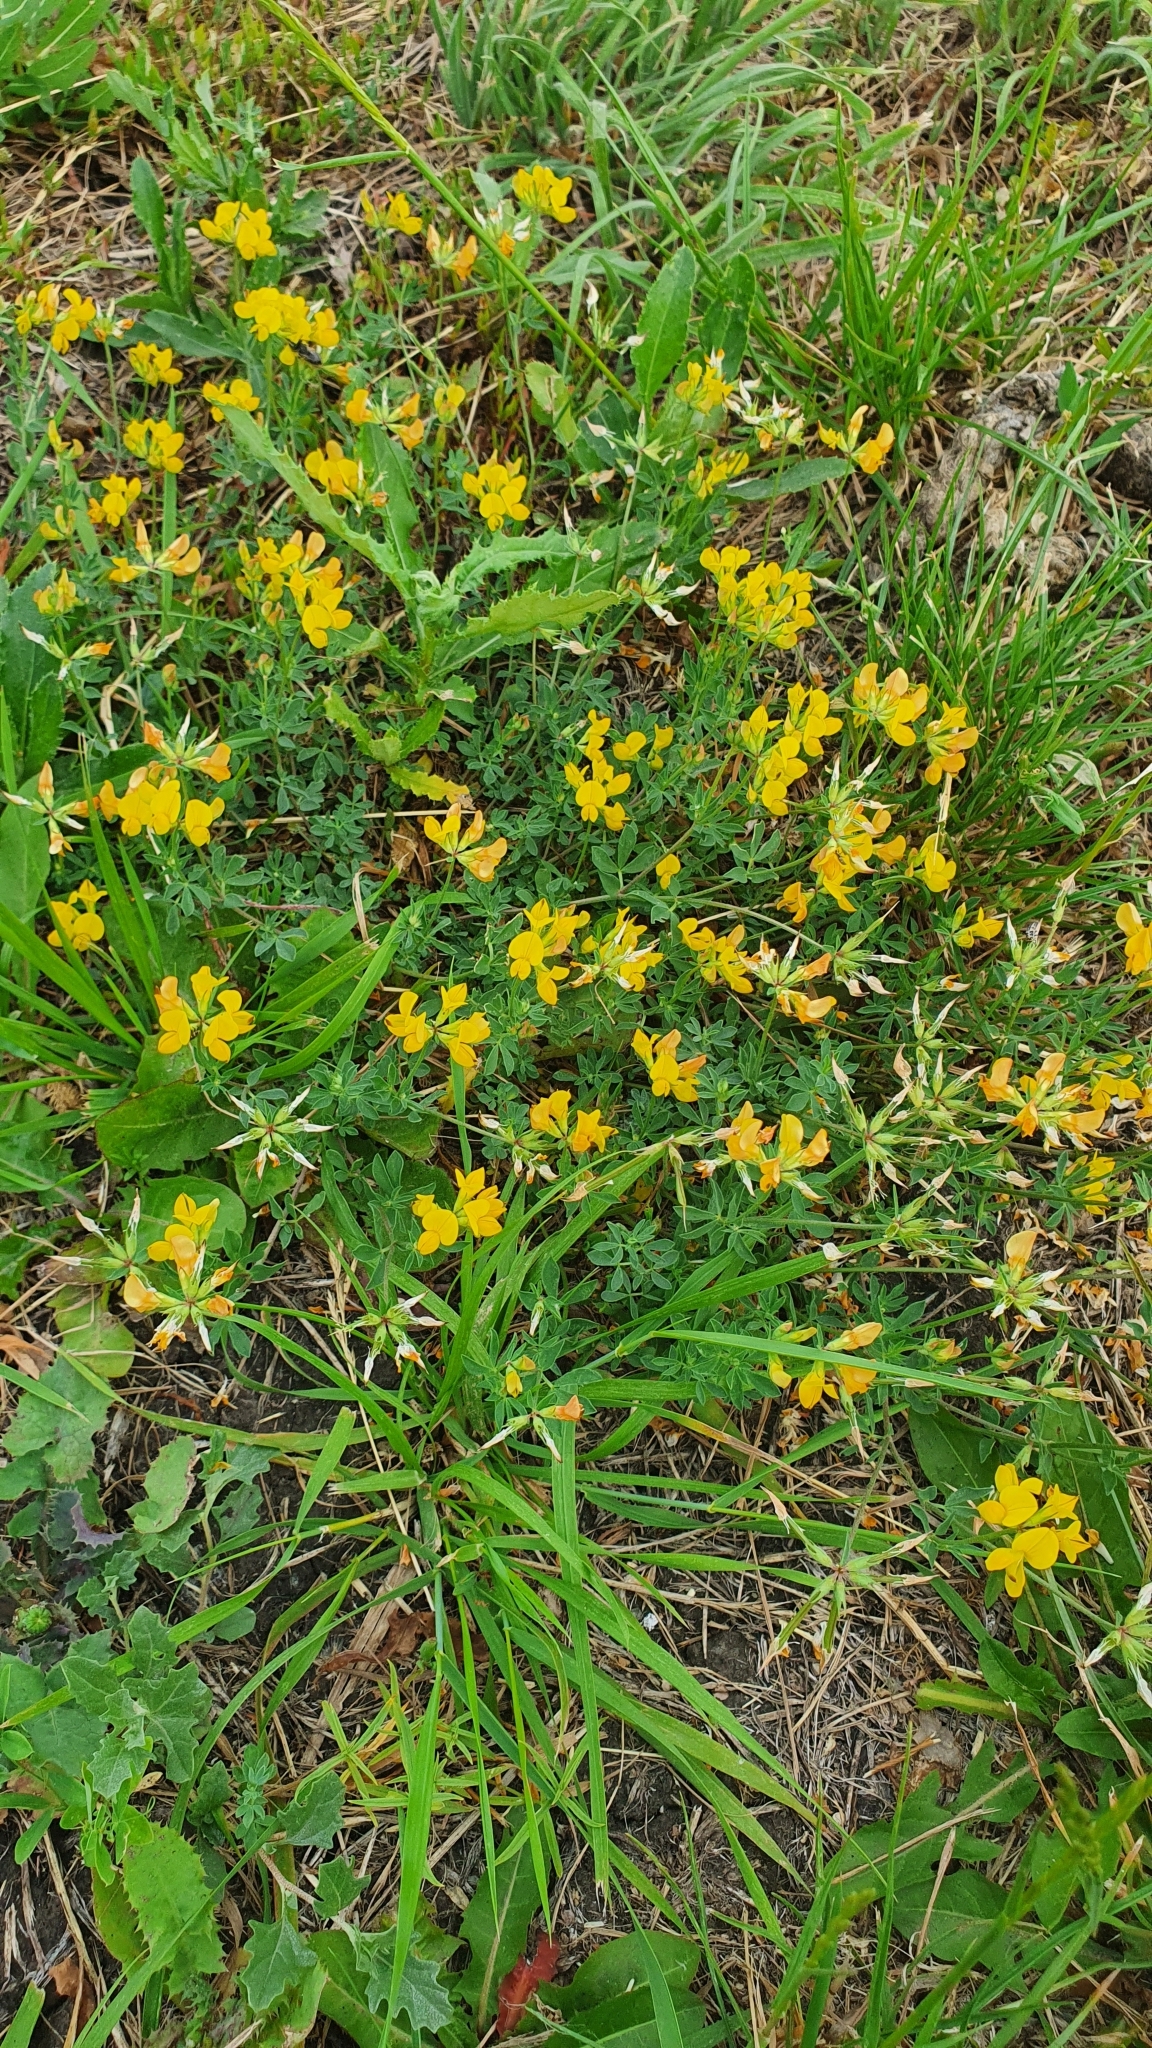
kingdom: Plantae
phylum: Tracheophyta
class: Magnoliopsida
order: Fabales
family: Fabaceae
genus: Lotus
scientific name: Lotus corniculatus
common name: Common bird's-foot-trefoil
